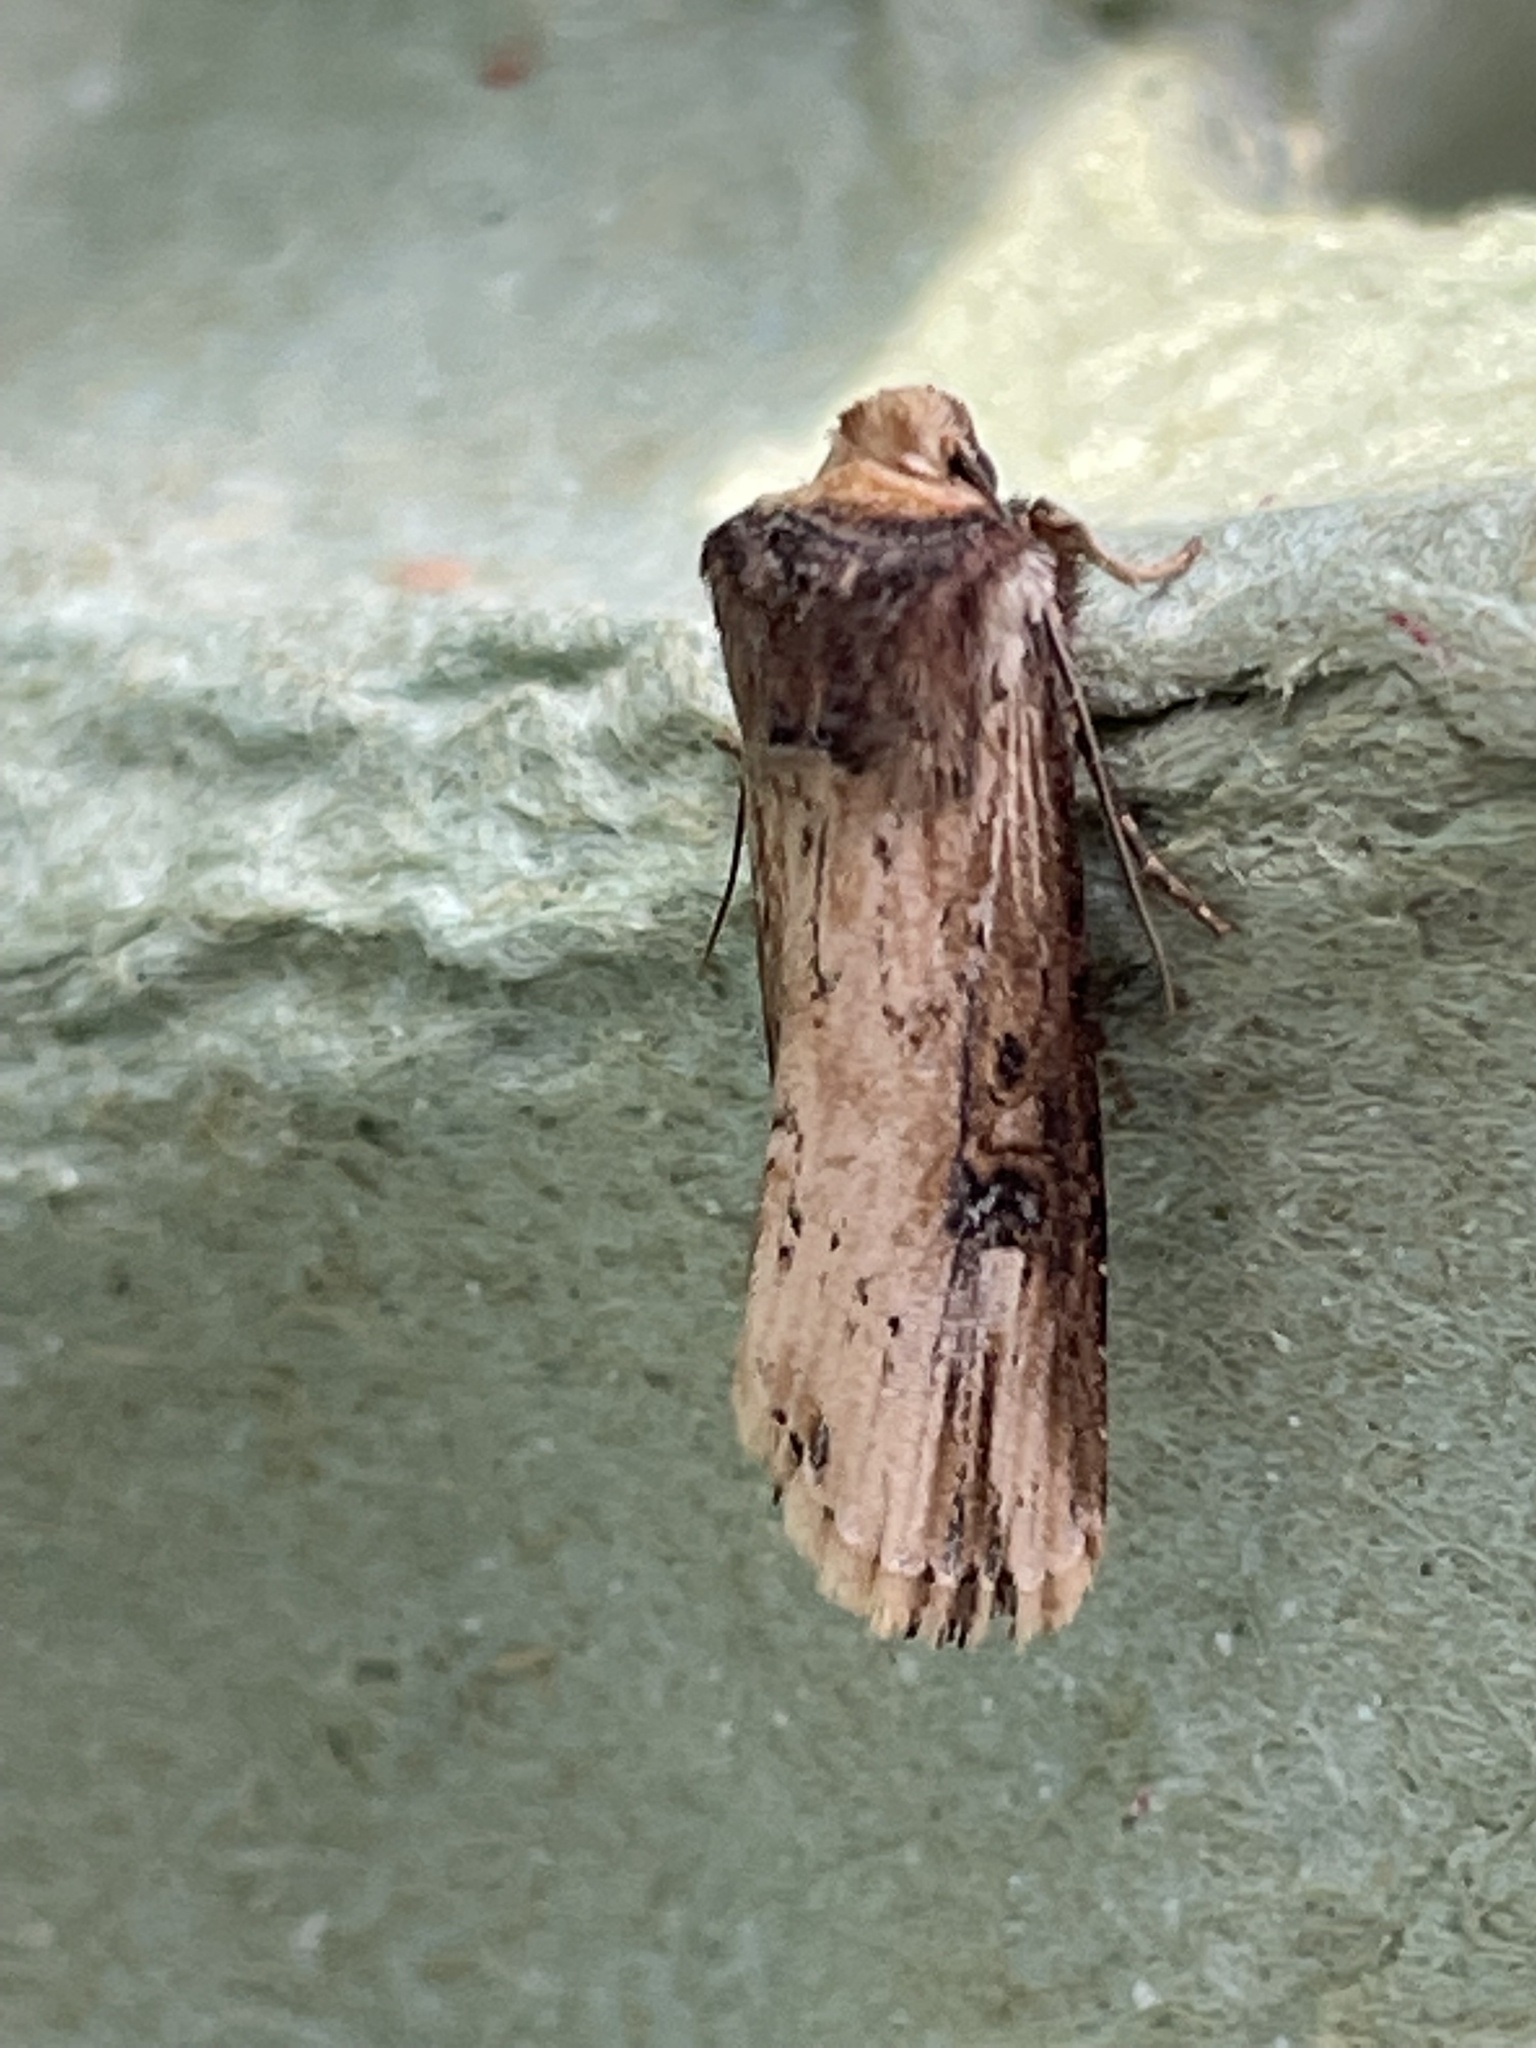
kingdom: Animalia
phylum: Arthropoda
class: Insecta
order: Lepidoptera
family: Noctuidae
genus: Axylia
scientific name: Axylia putris
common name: Flame
